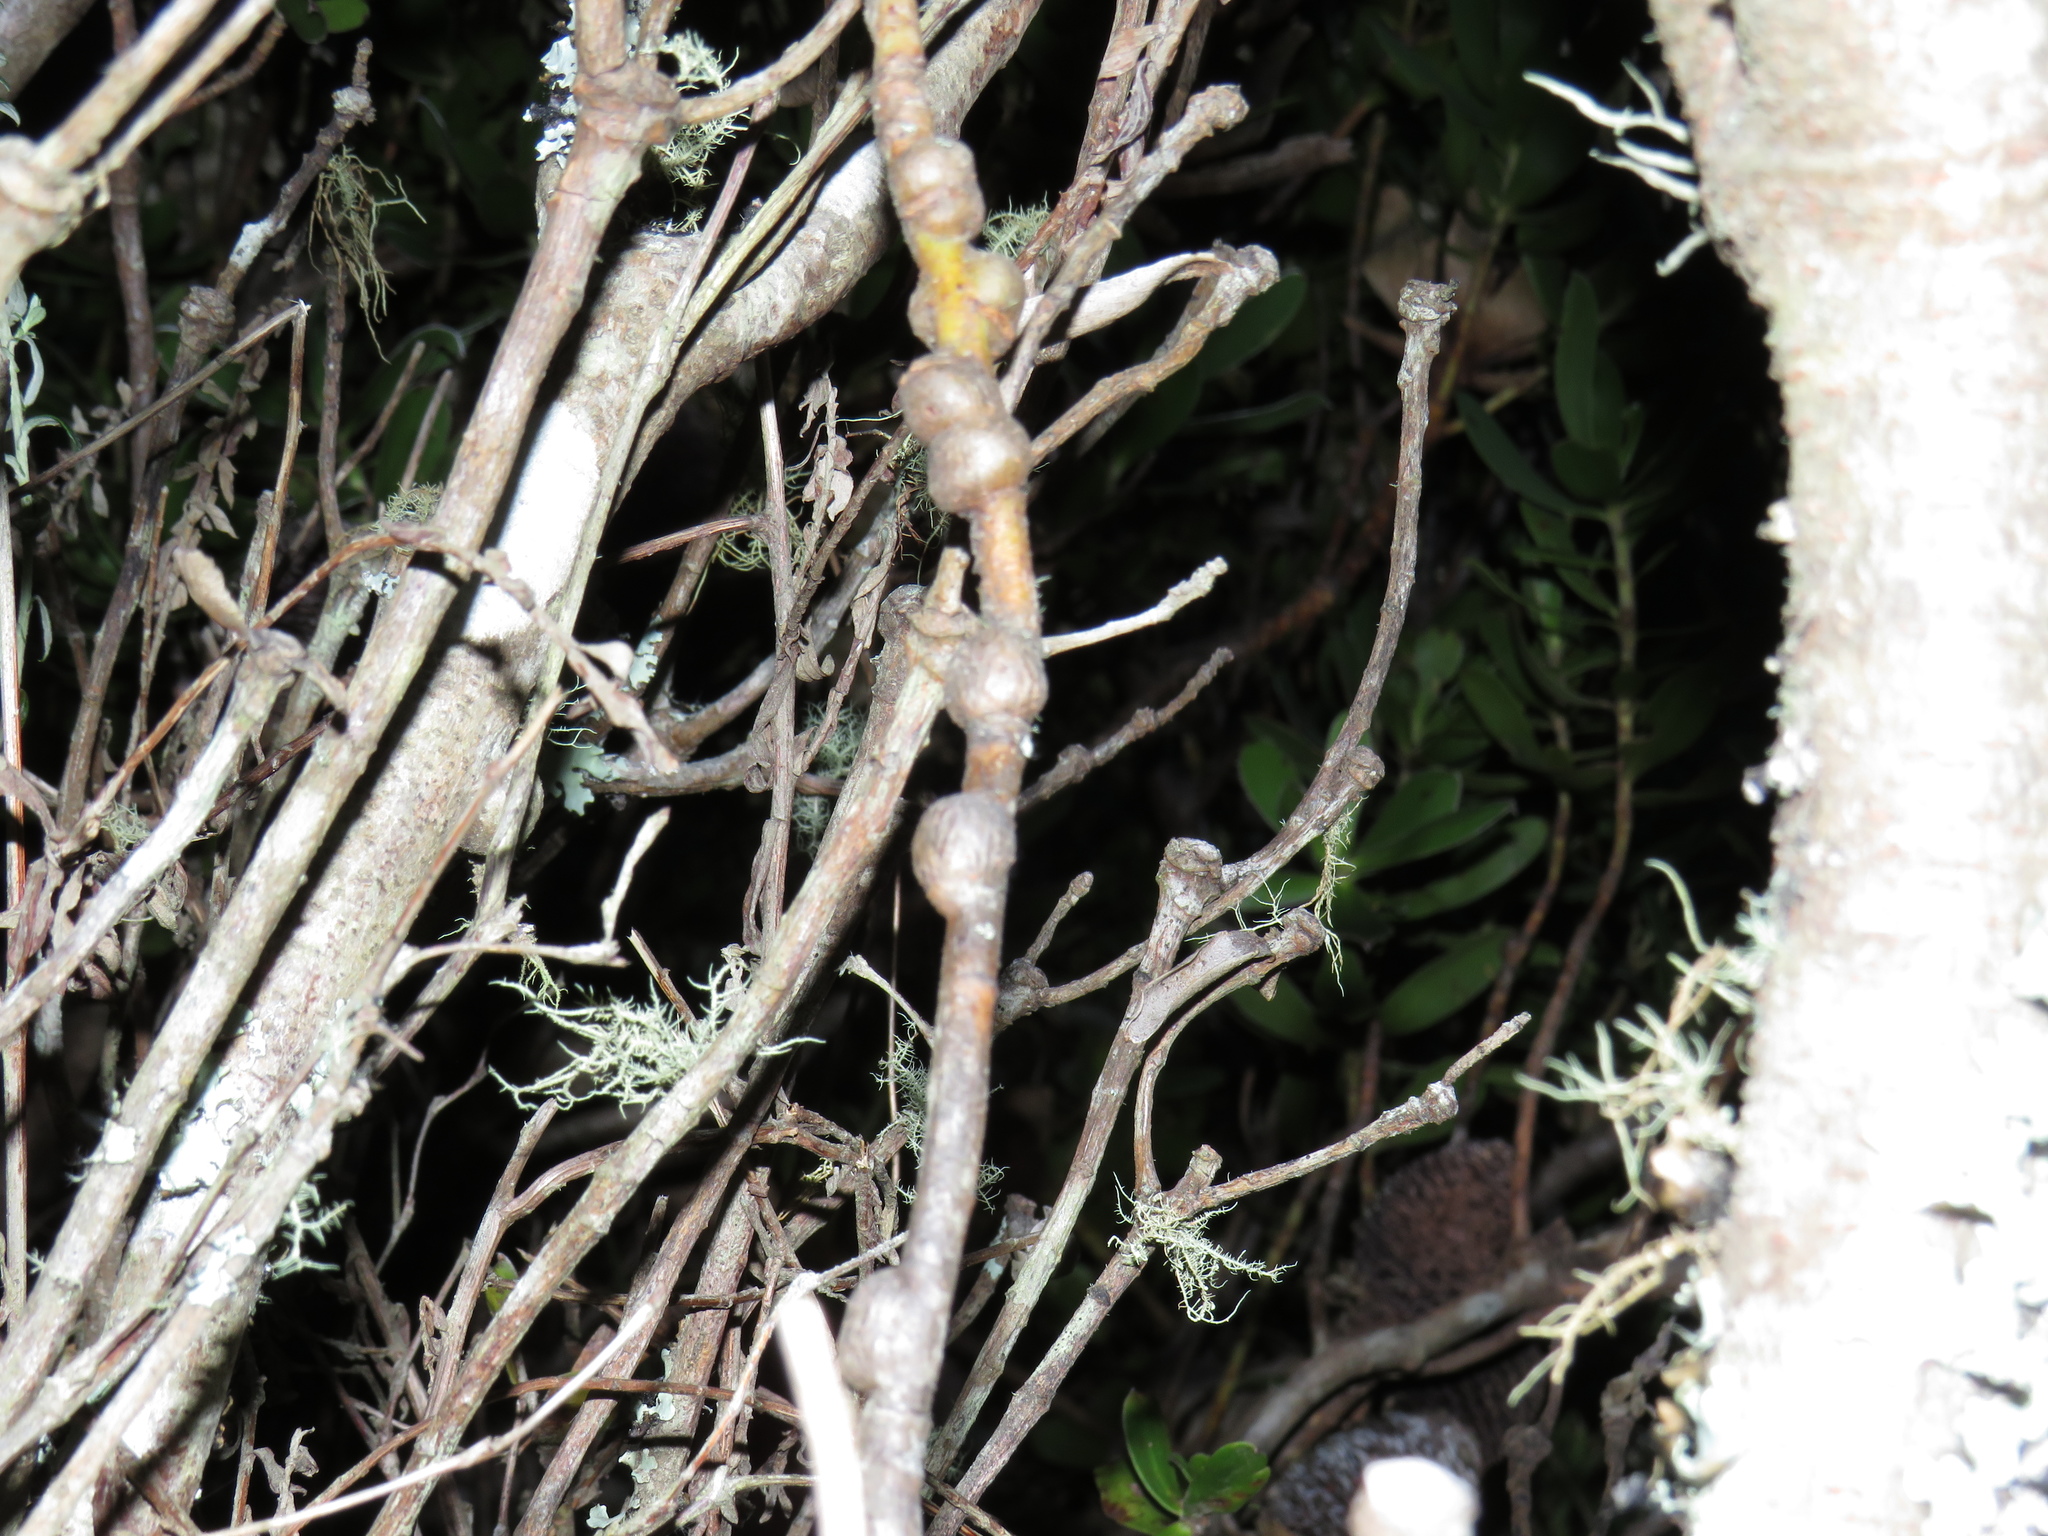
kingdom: Plantae
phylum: Tracheophyta
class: Magnoliopsida
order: Proteales
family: Proteaceae
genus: Leucadendron
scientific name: Leucadendron strobilinum
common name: Mountain rose
